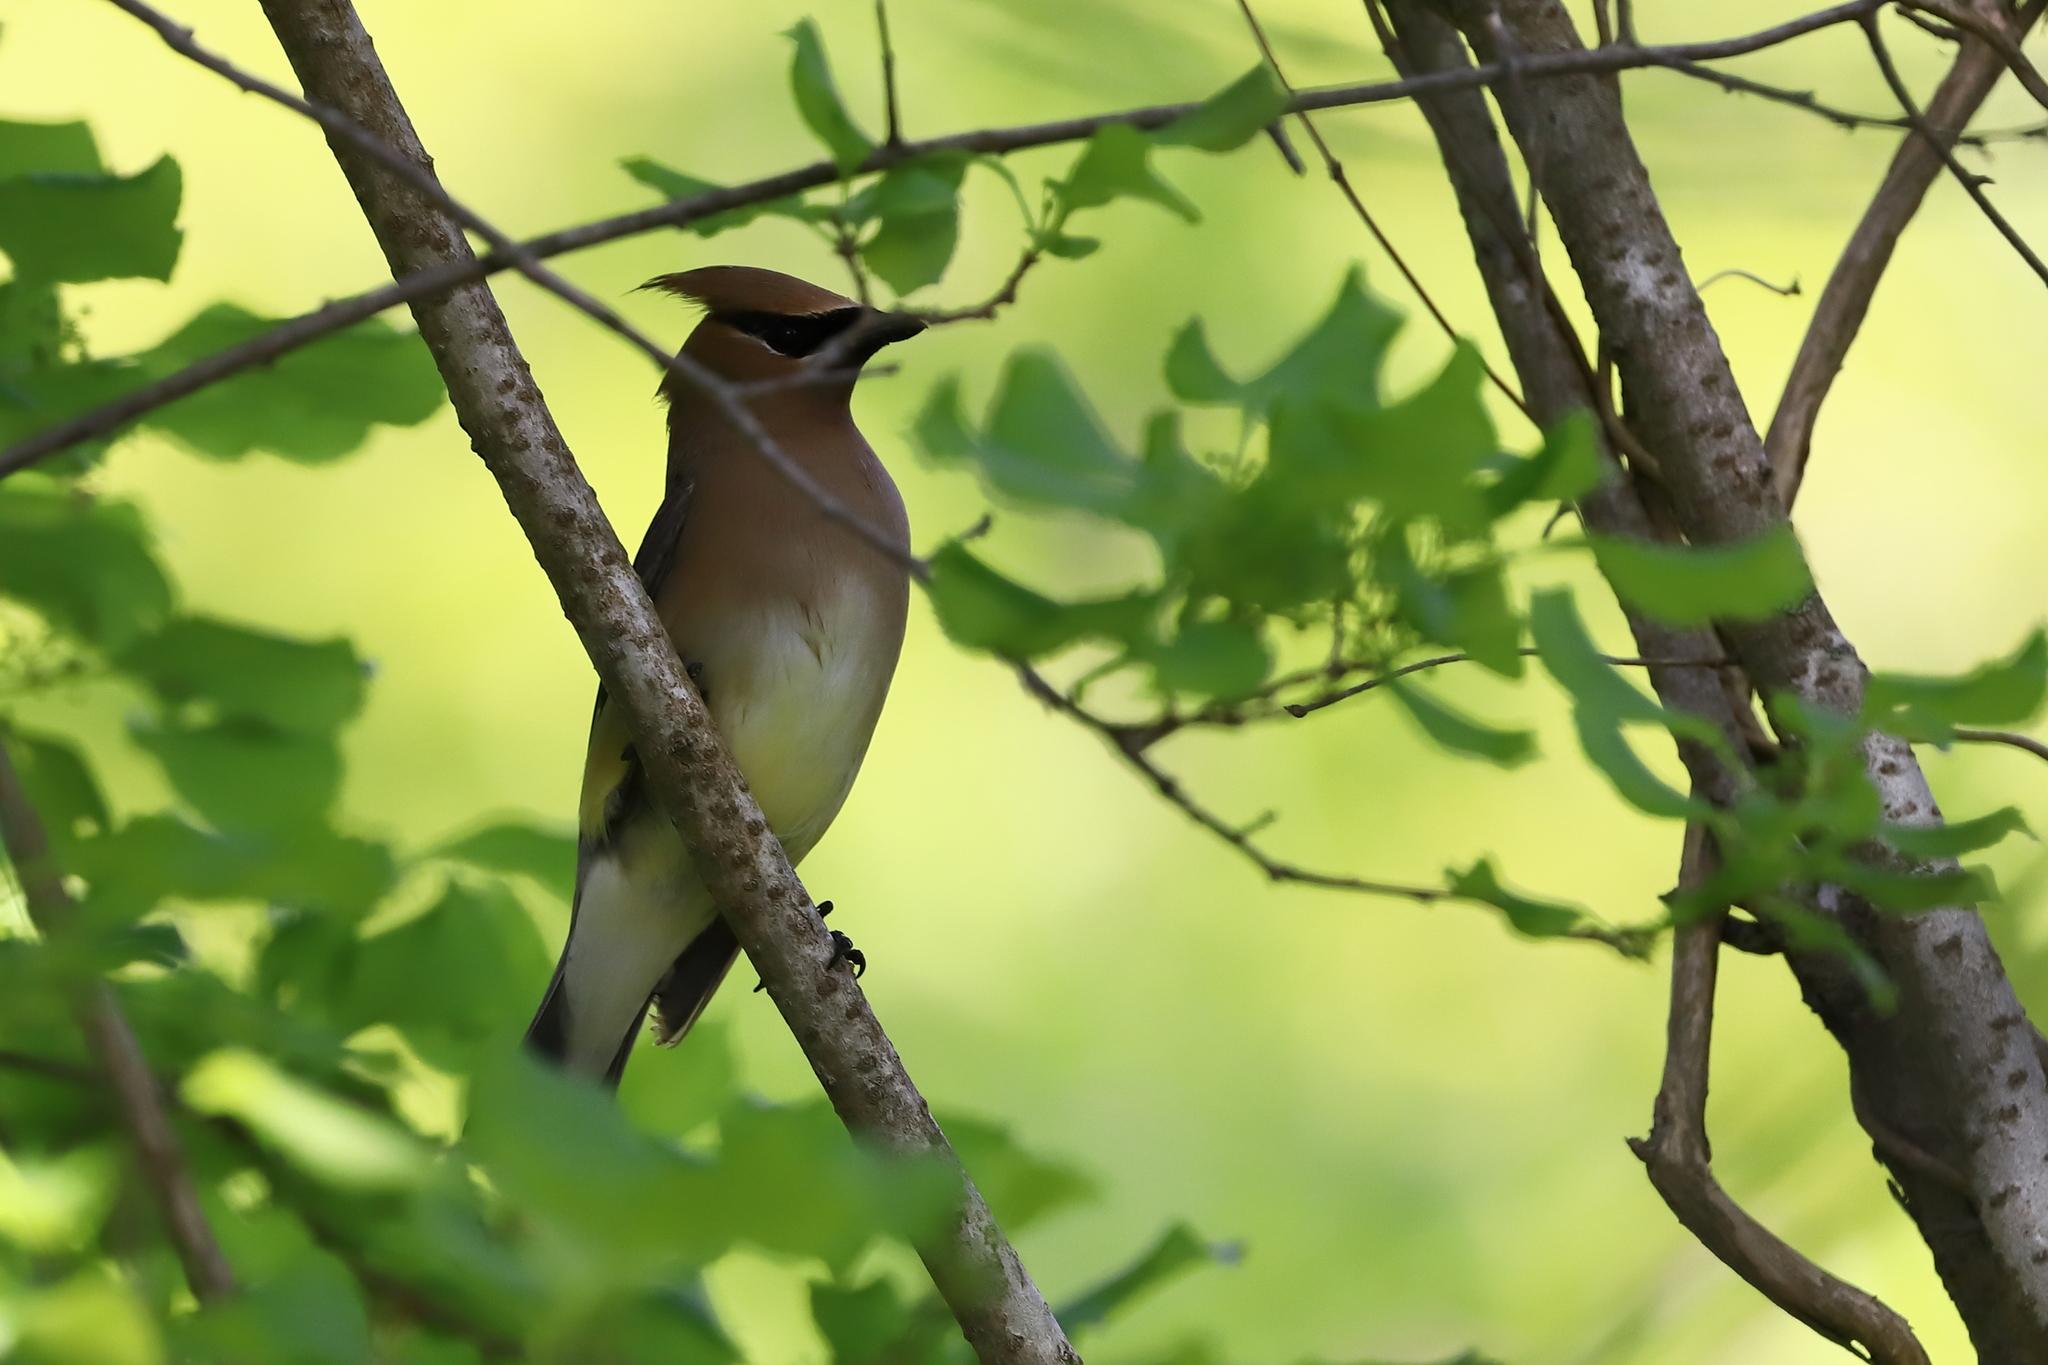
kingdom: Animalia
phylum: Chordata
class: Aves
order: Passeriformes
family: Bombycillidae
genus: Bombycilla
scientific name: Bombycilla cedrorum
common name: Cedar waxwing
